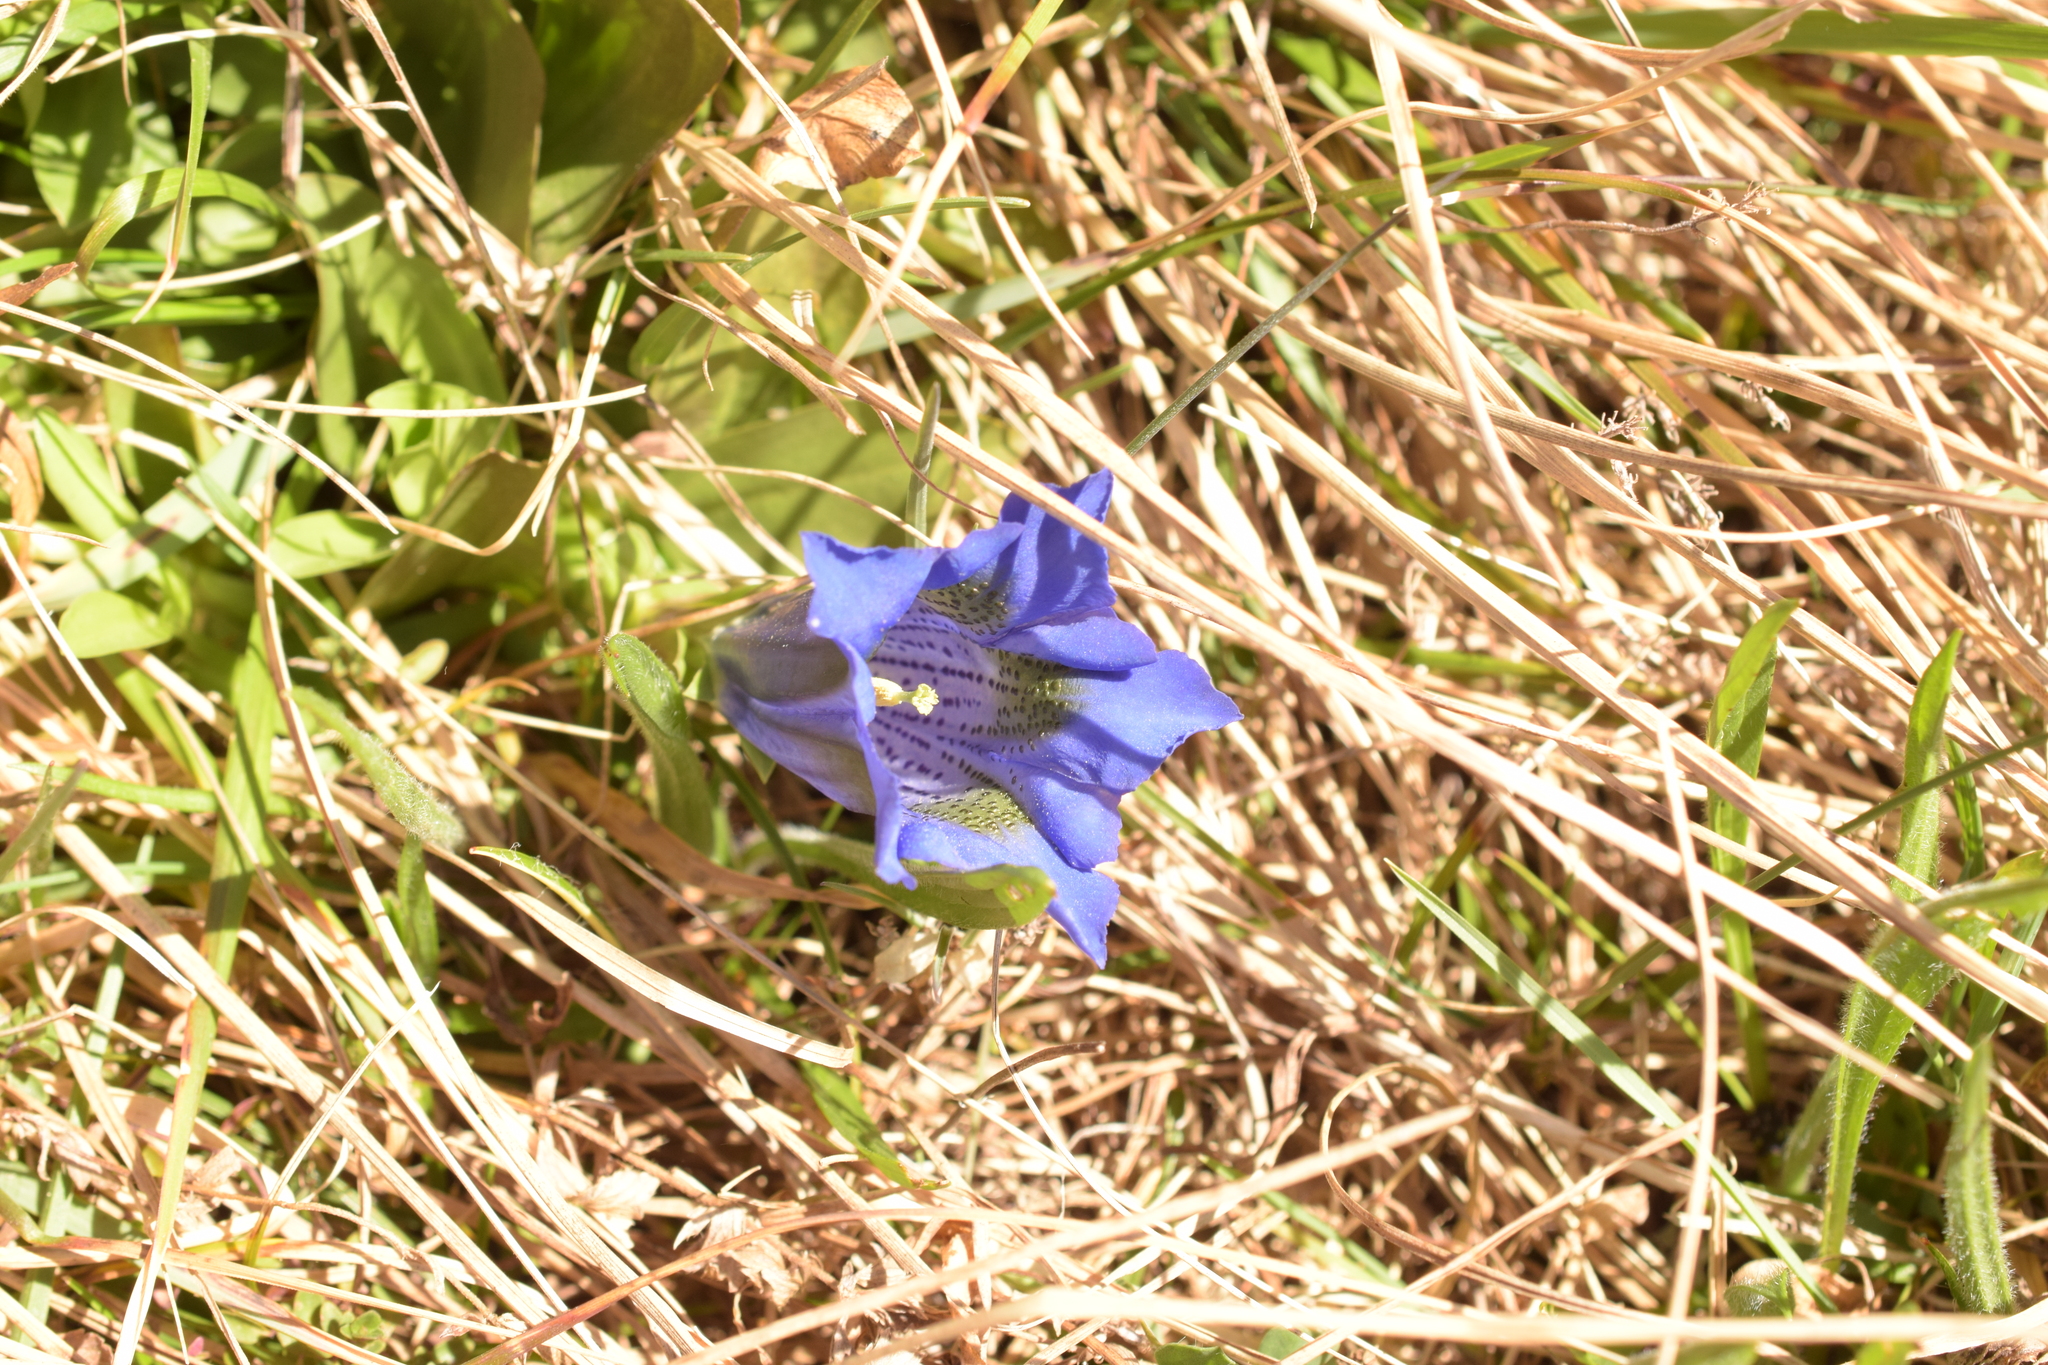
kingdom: Plantae
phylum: Tracheophyta
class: Magnoliopsida
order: Gentianales
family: Gentianaceae
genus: Gentiana
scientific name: Gentiana acaulis
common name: Trumpet gentian
